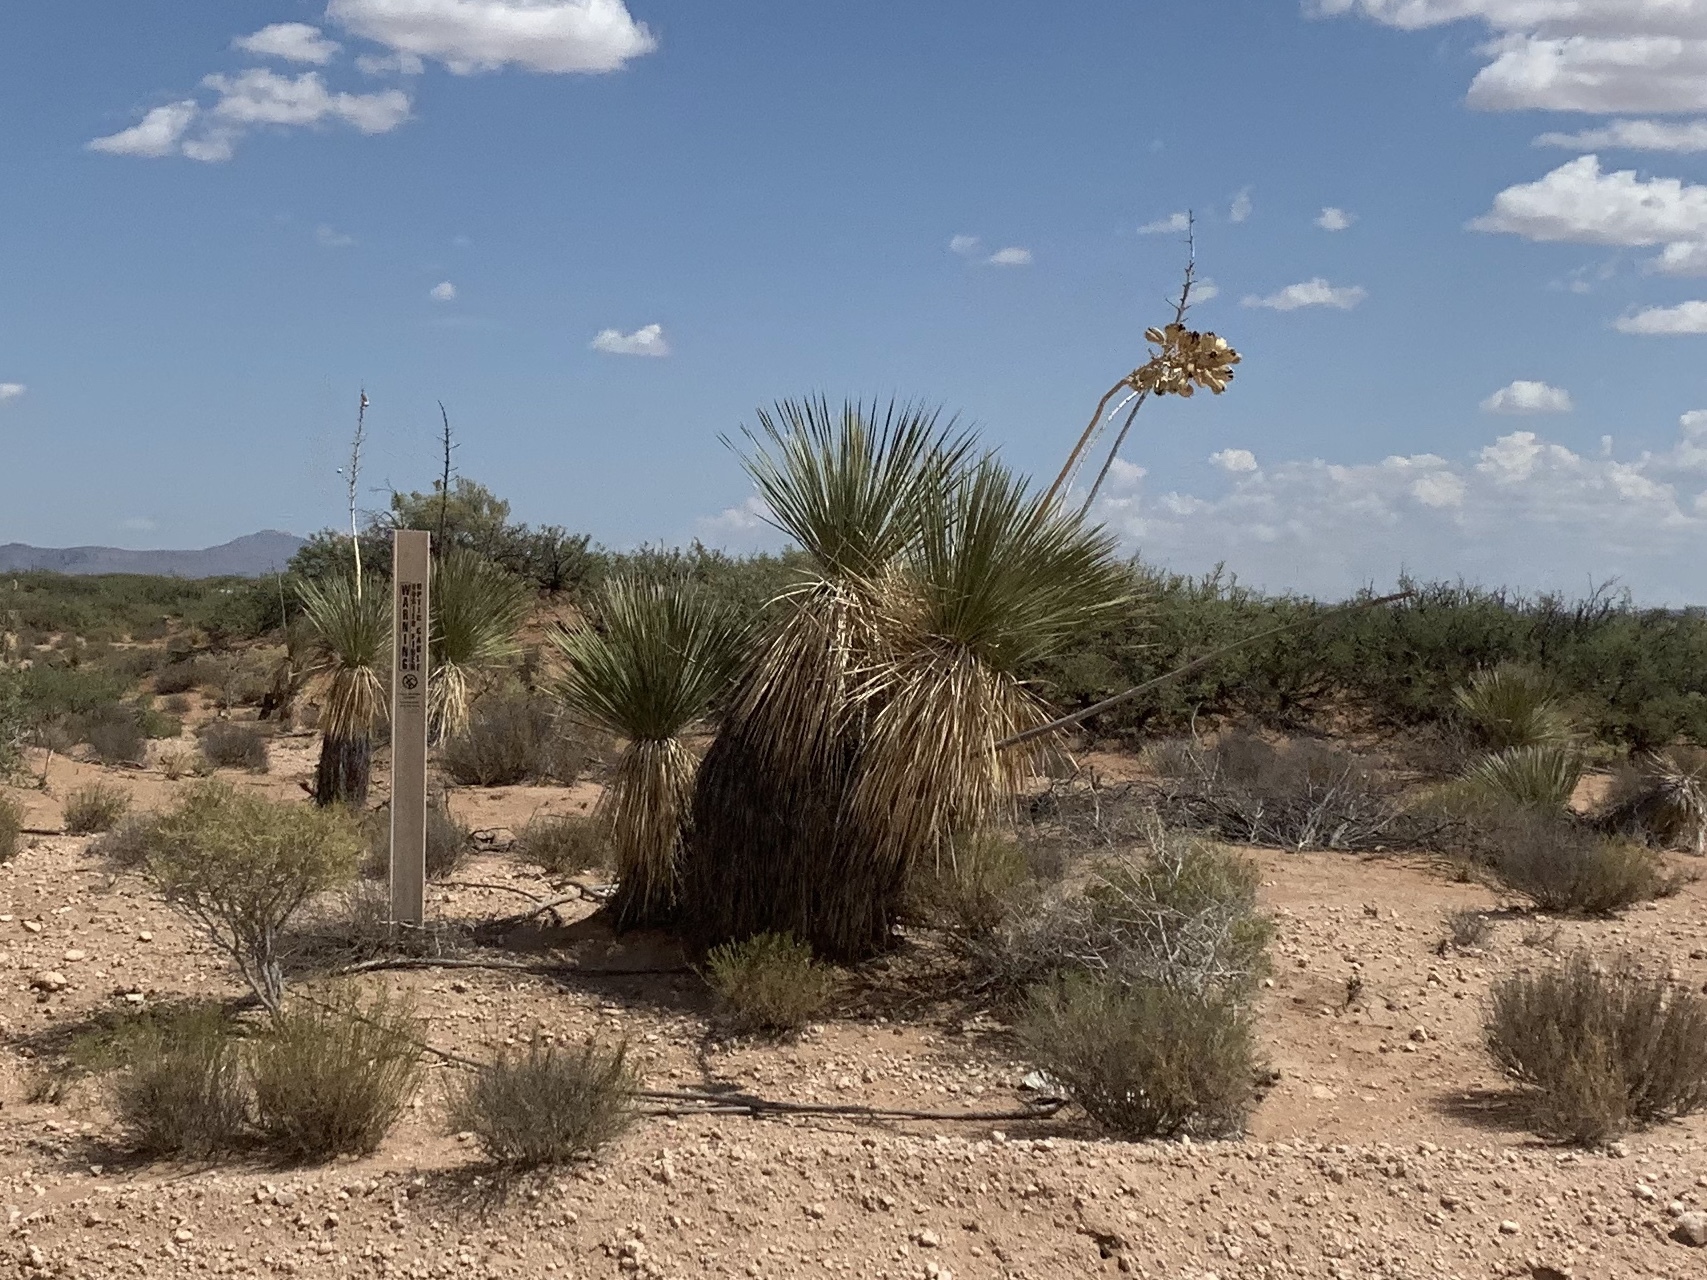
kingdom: Plantae
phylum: Tracheophyta
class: Liliopsida
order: Asparagales
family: Asparagaceae
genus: Yucca
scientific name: Yucca elata
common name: Palmella
